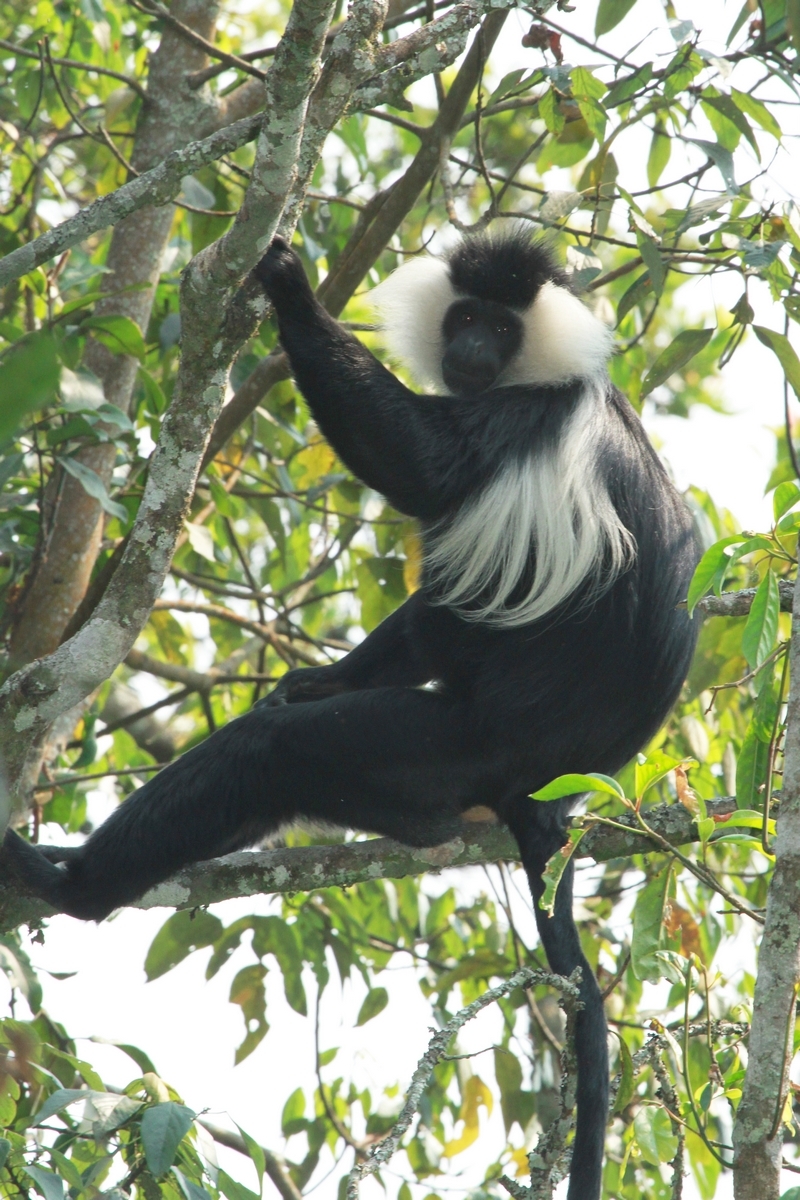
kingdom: Animalia
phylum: Chordata
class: Mammalia
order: Primates
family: Cercopithecidae
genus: Colobus
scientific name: Colobus angolensis
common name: Angola colobus
